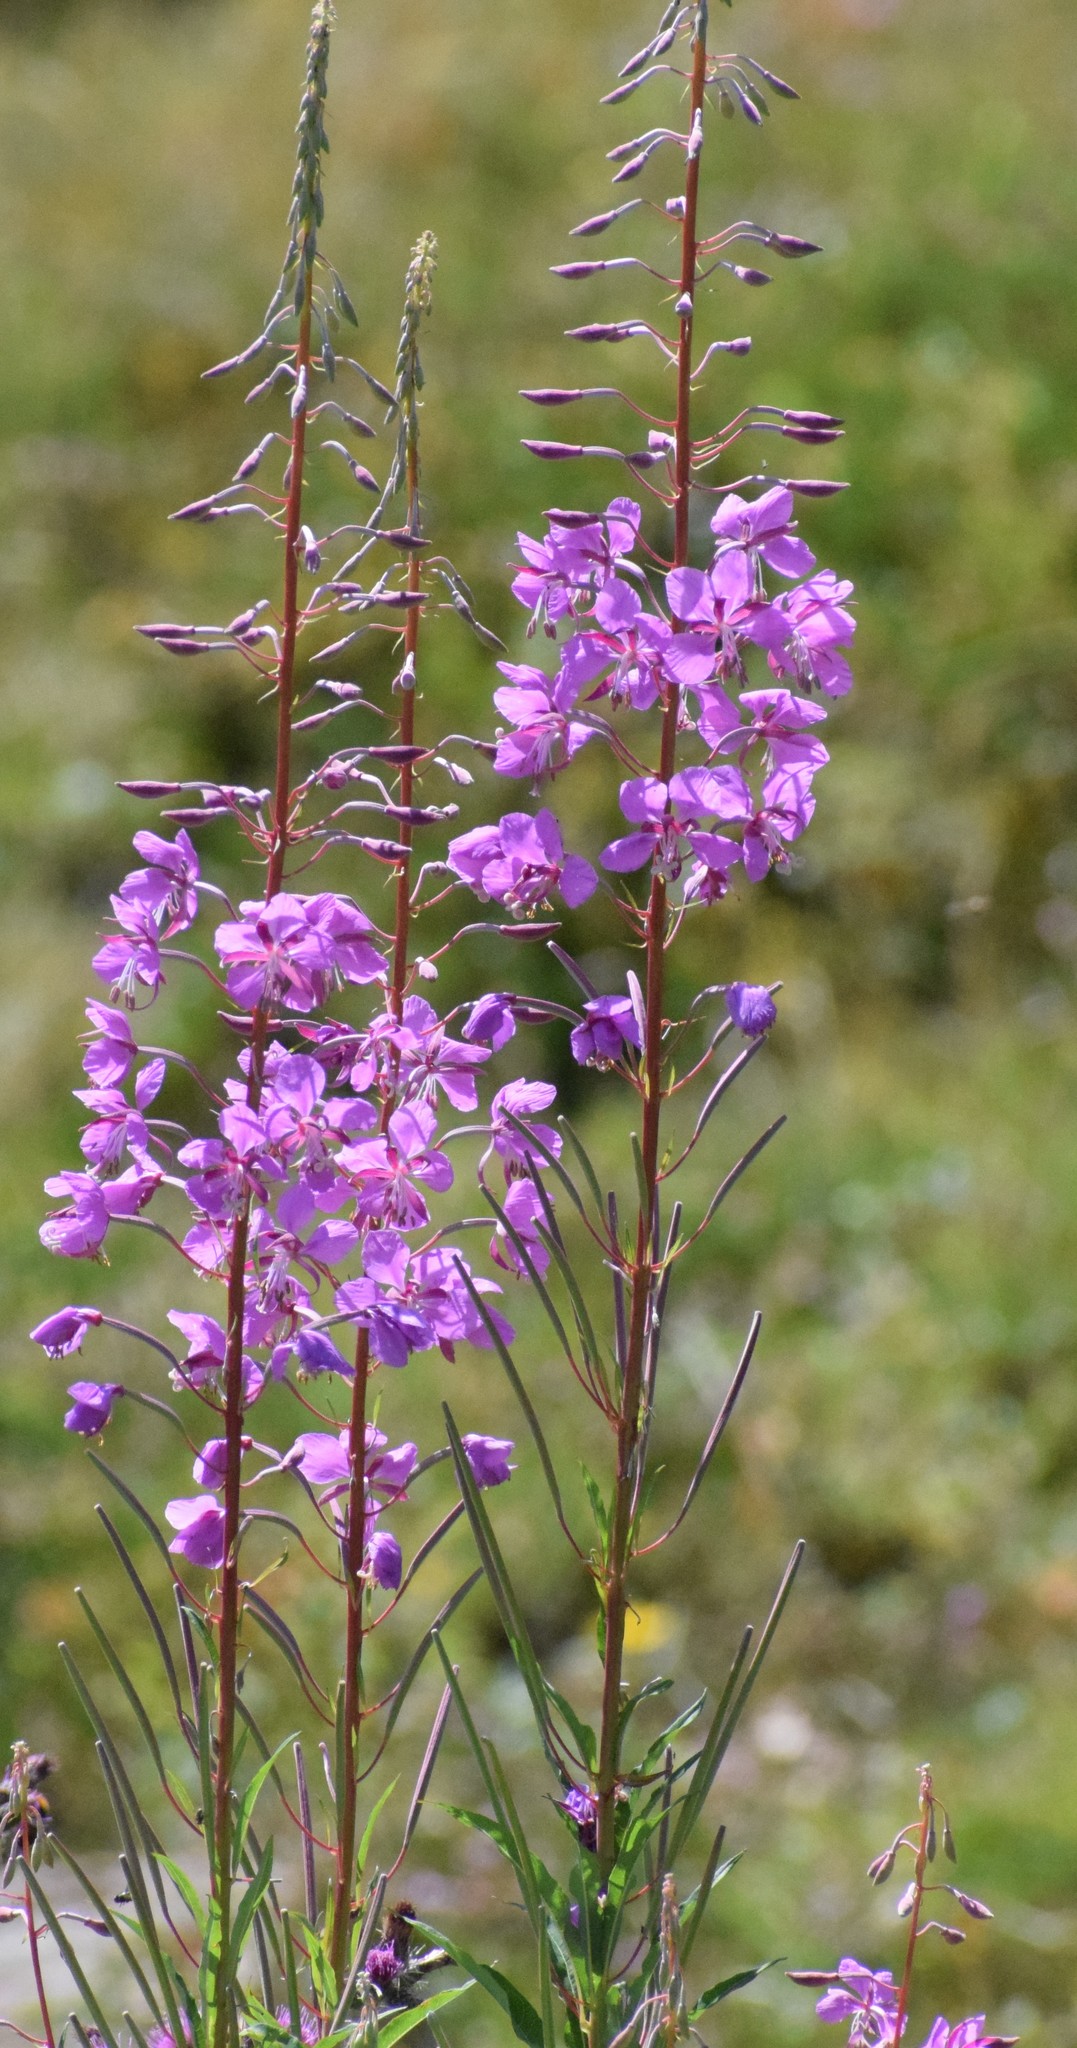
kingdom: Plantae
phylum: Tracheophyta
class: Magnoliopsida
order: Myrtales
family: Onagraceae
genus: Chamaenerion
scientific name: Chamaenerion angustifolium
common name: Fireweed
